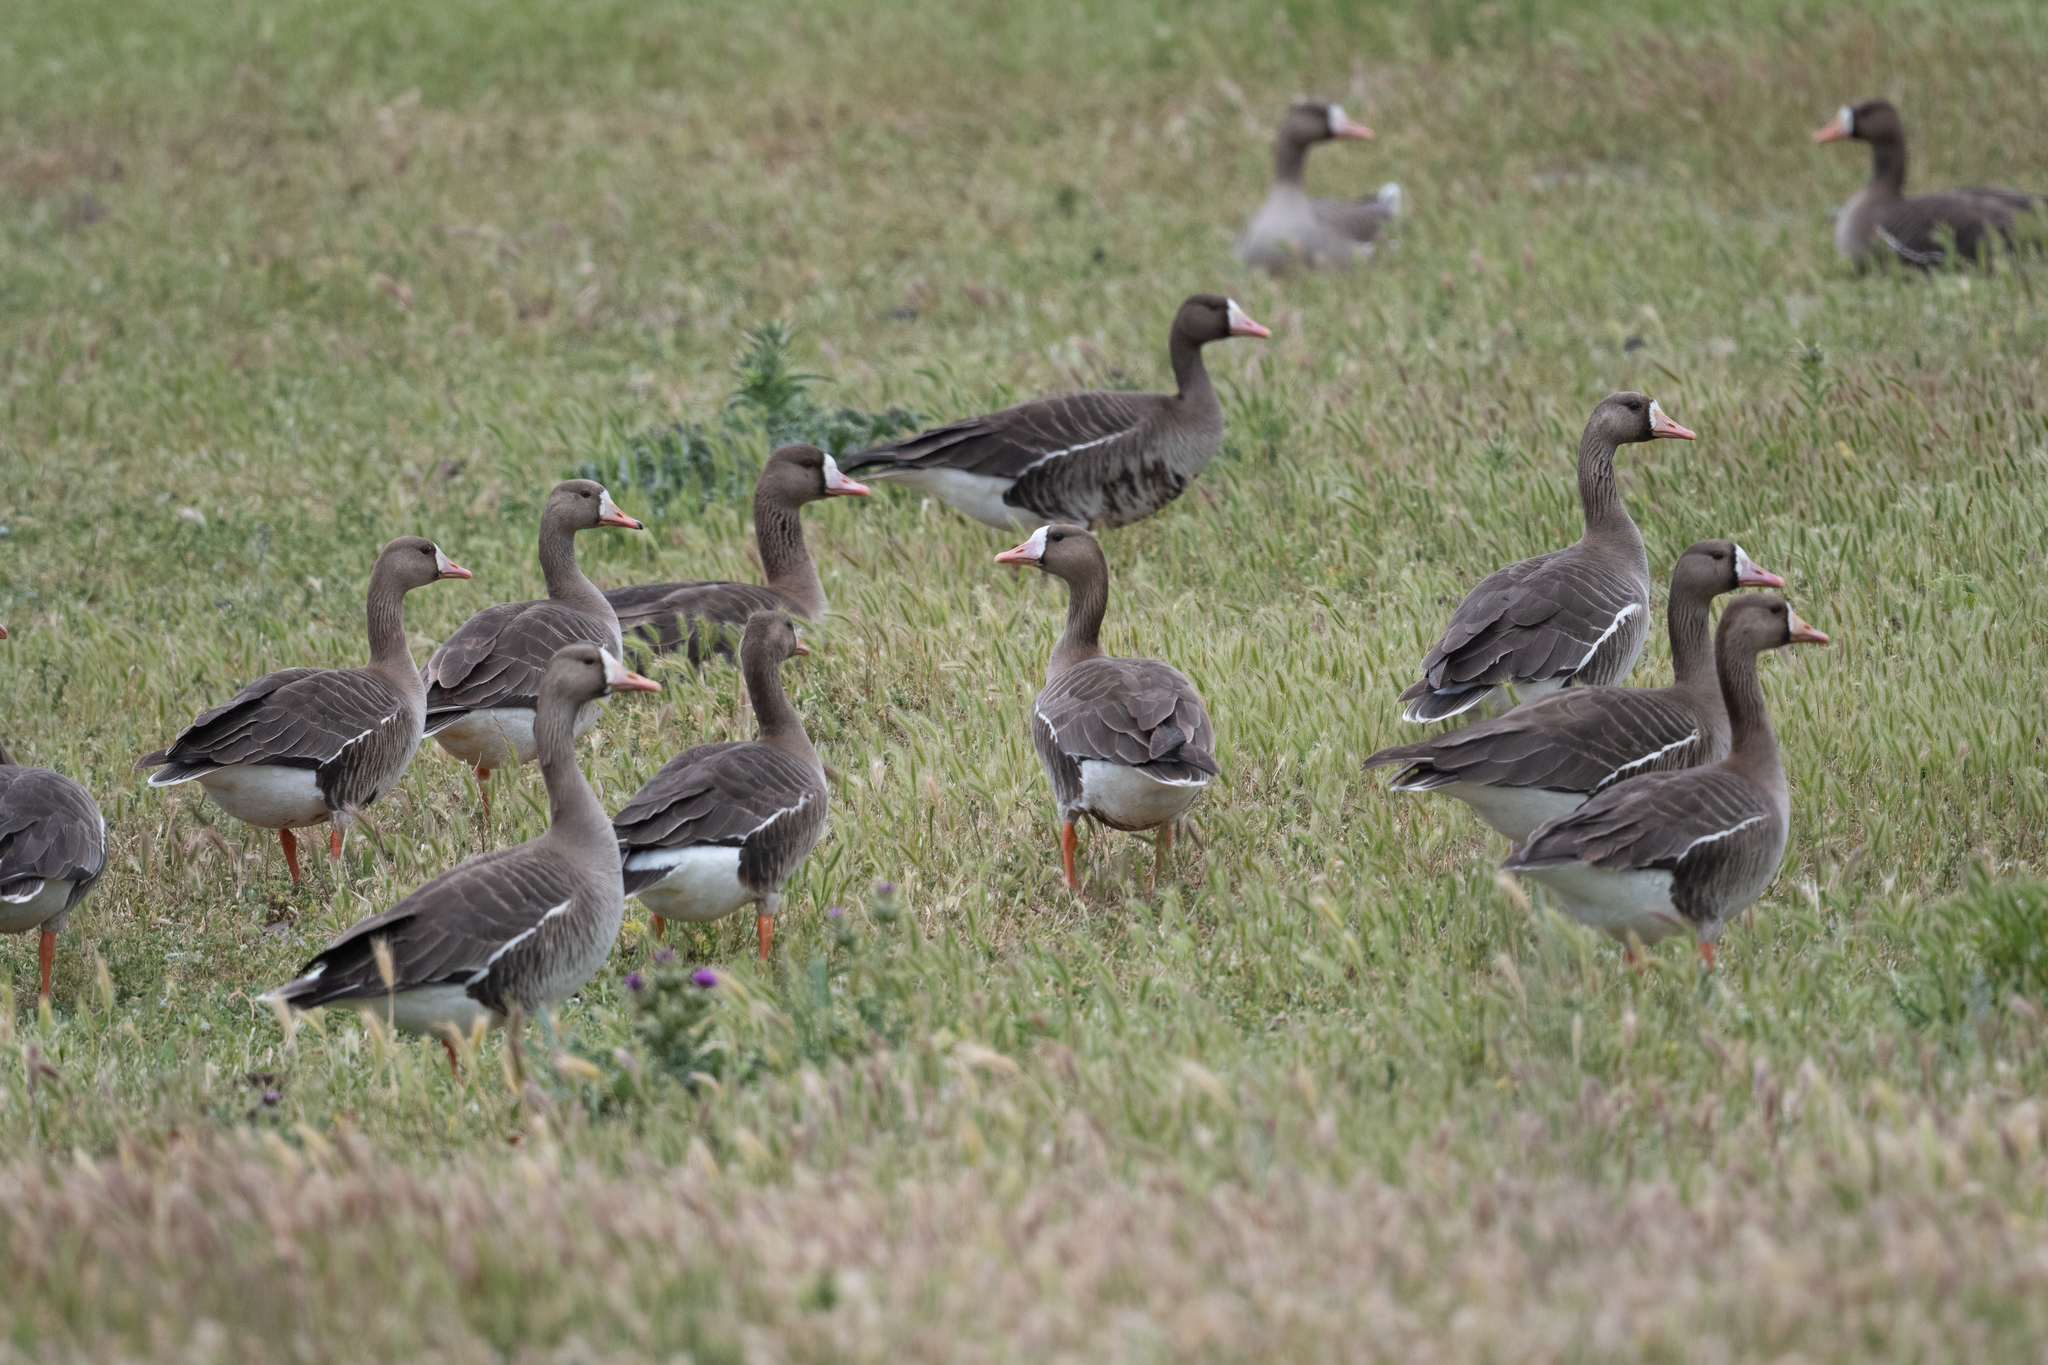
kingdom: Animalia
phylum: Chordata
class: Aves
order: Anseriformes
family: Anatidae
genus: Anser
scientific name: Anser albifrons
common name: Greater white-fronted goose
